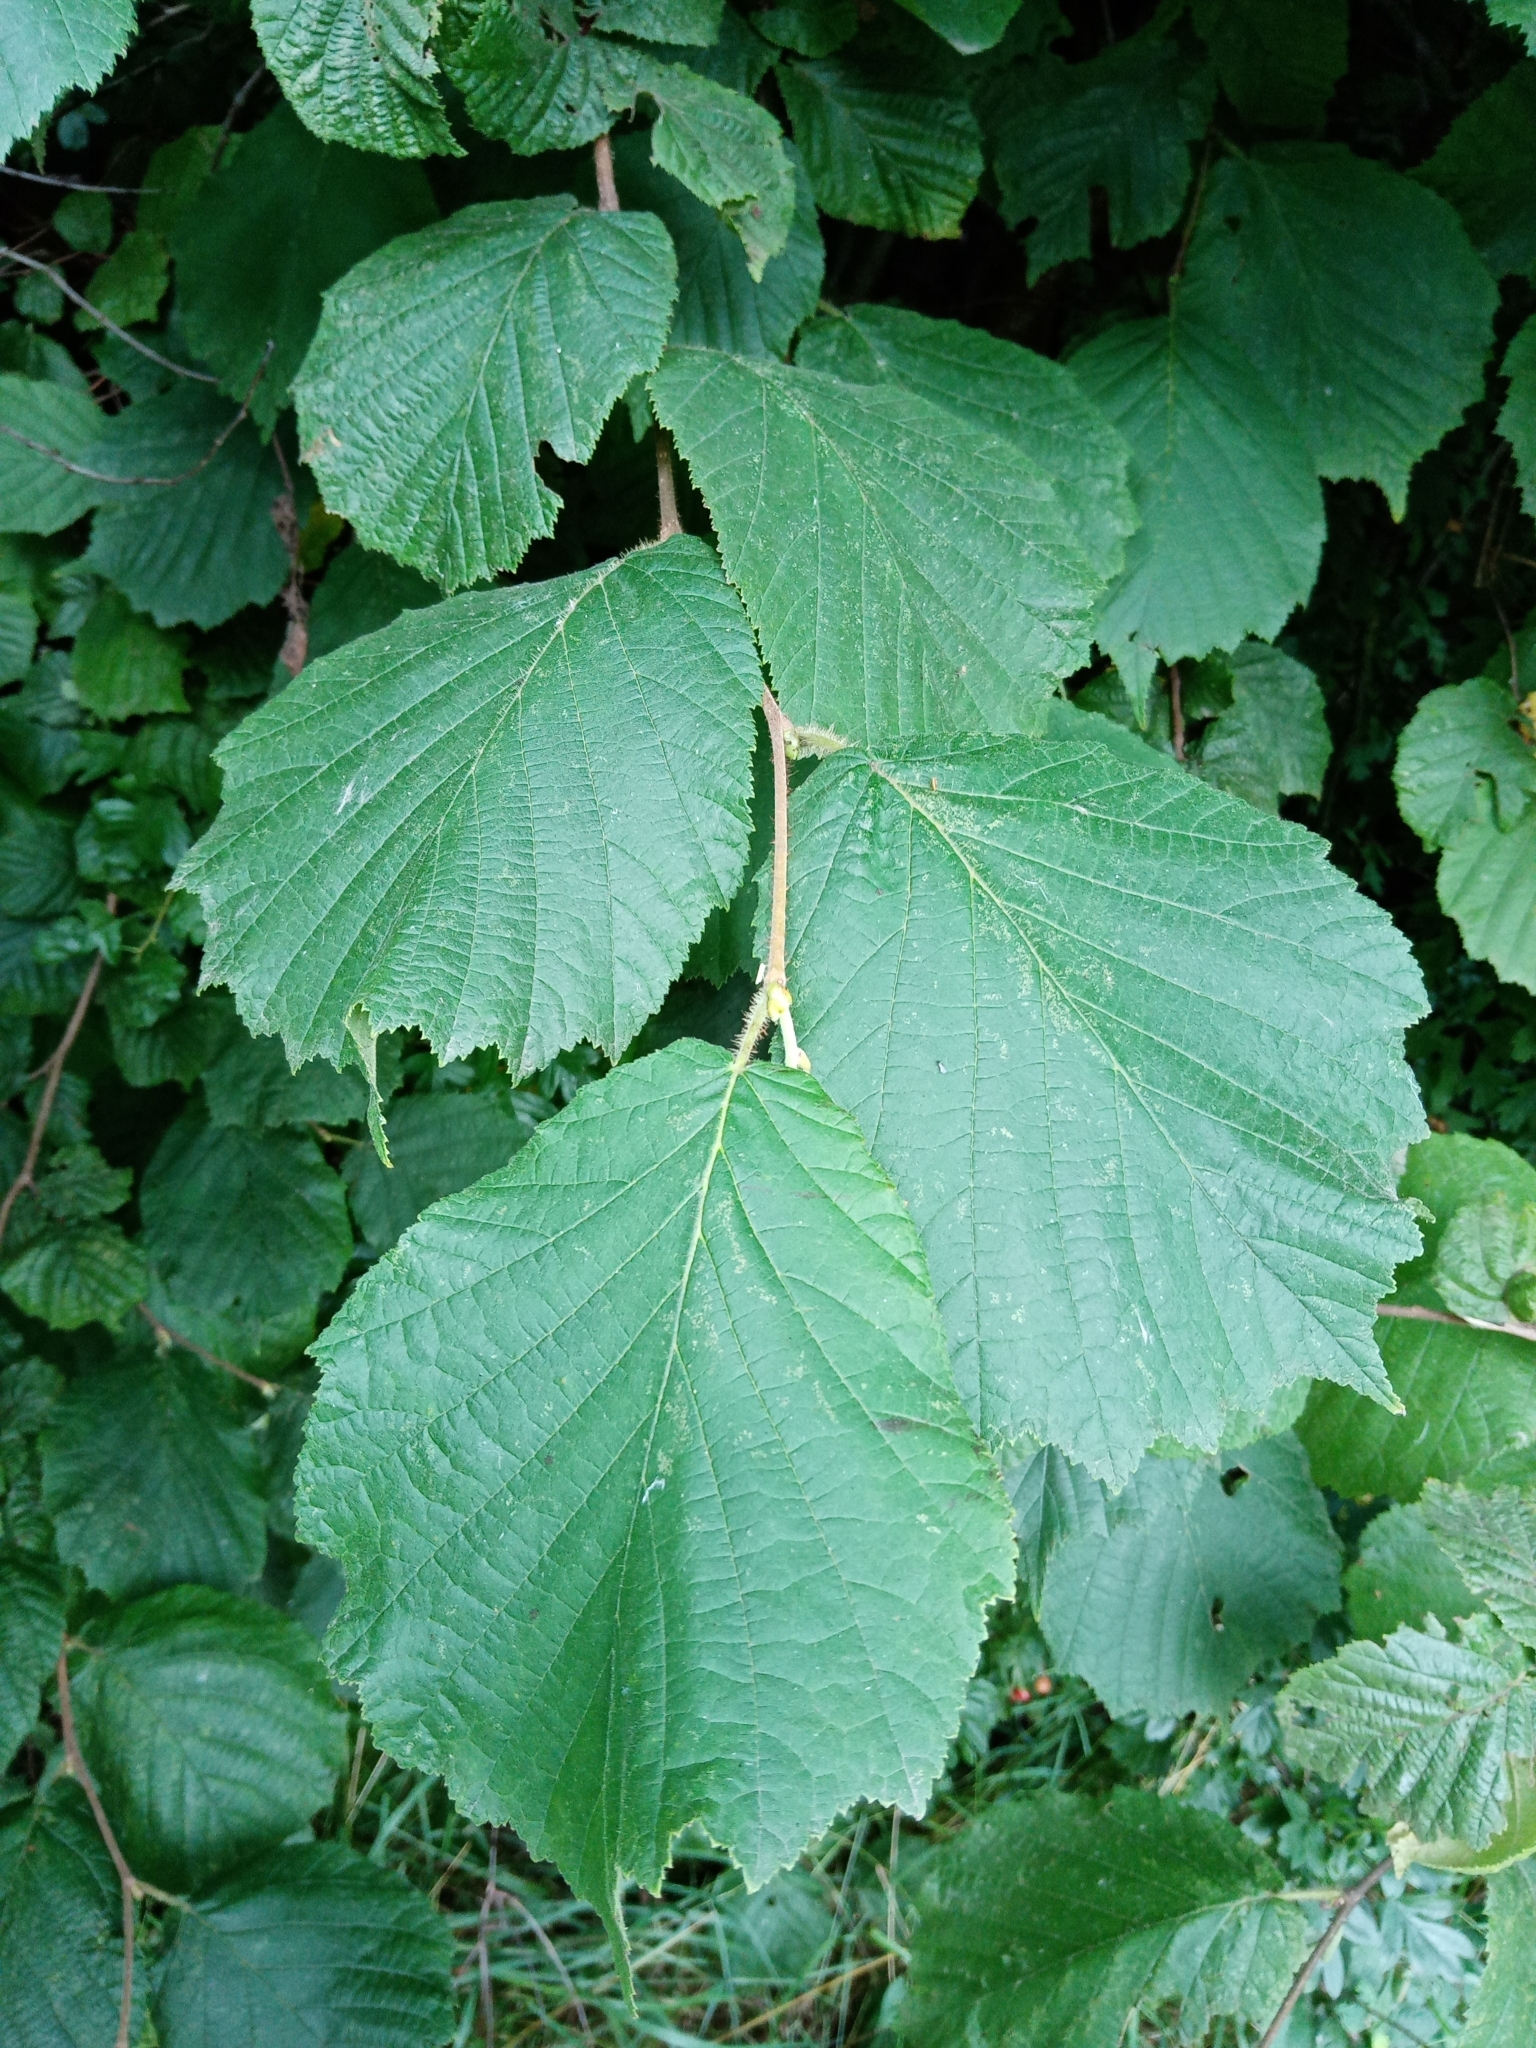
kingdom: Plantae
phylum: Tracheophyta
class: Magnoliopsida
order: Fagales
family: Betulaceae
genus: Corylus
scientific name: Corylus avellana
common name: European hazel
